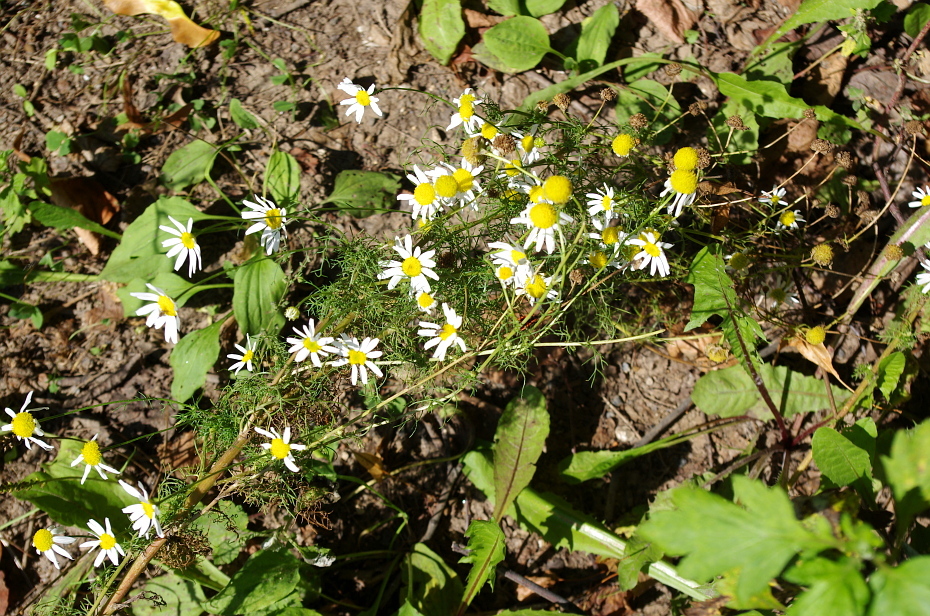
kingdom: Plantae
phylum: Tracheophyta
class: Magnoliopsida
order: Asterales
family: Asteraceae
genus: Tripleurospermum
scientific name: Tripleurospermum inodorum
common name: Scentless mayweed
